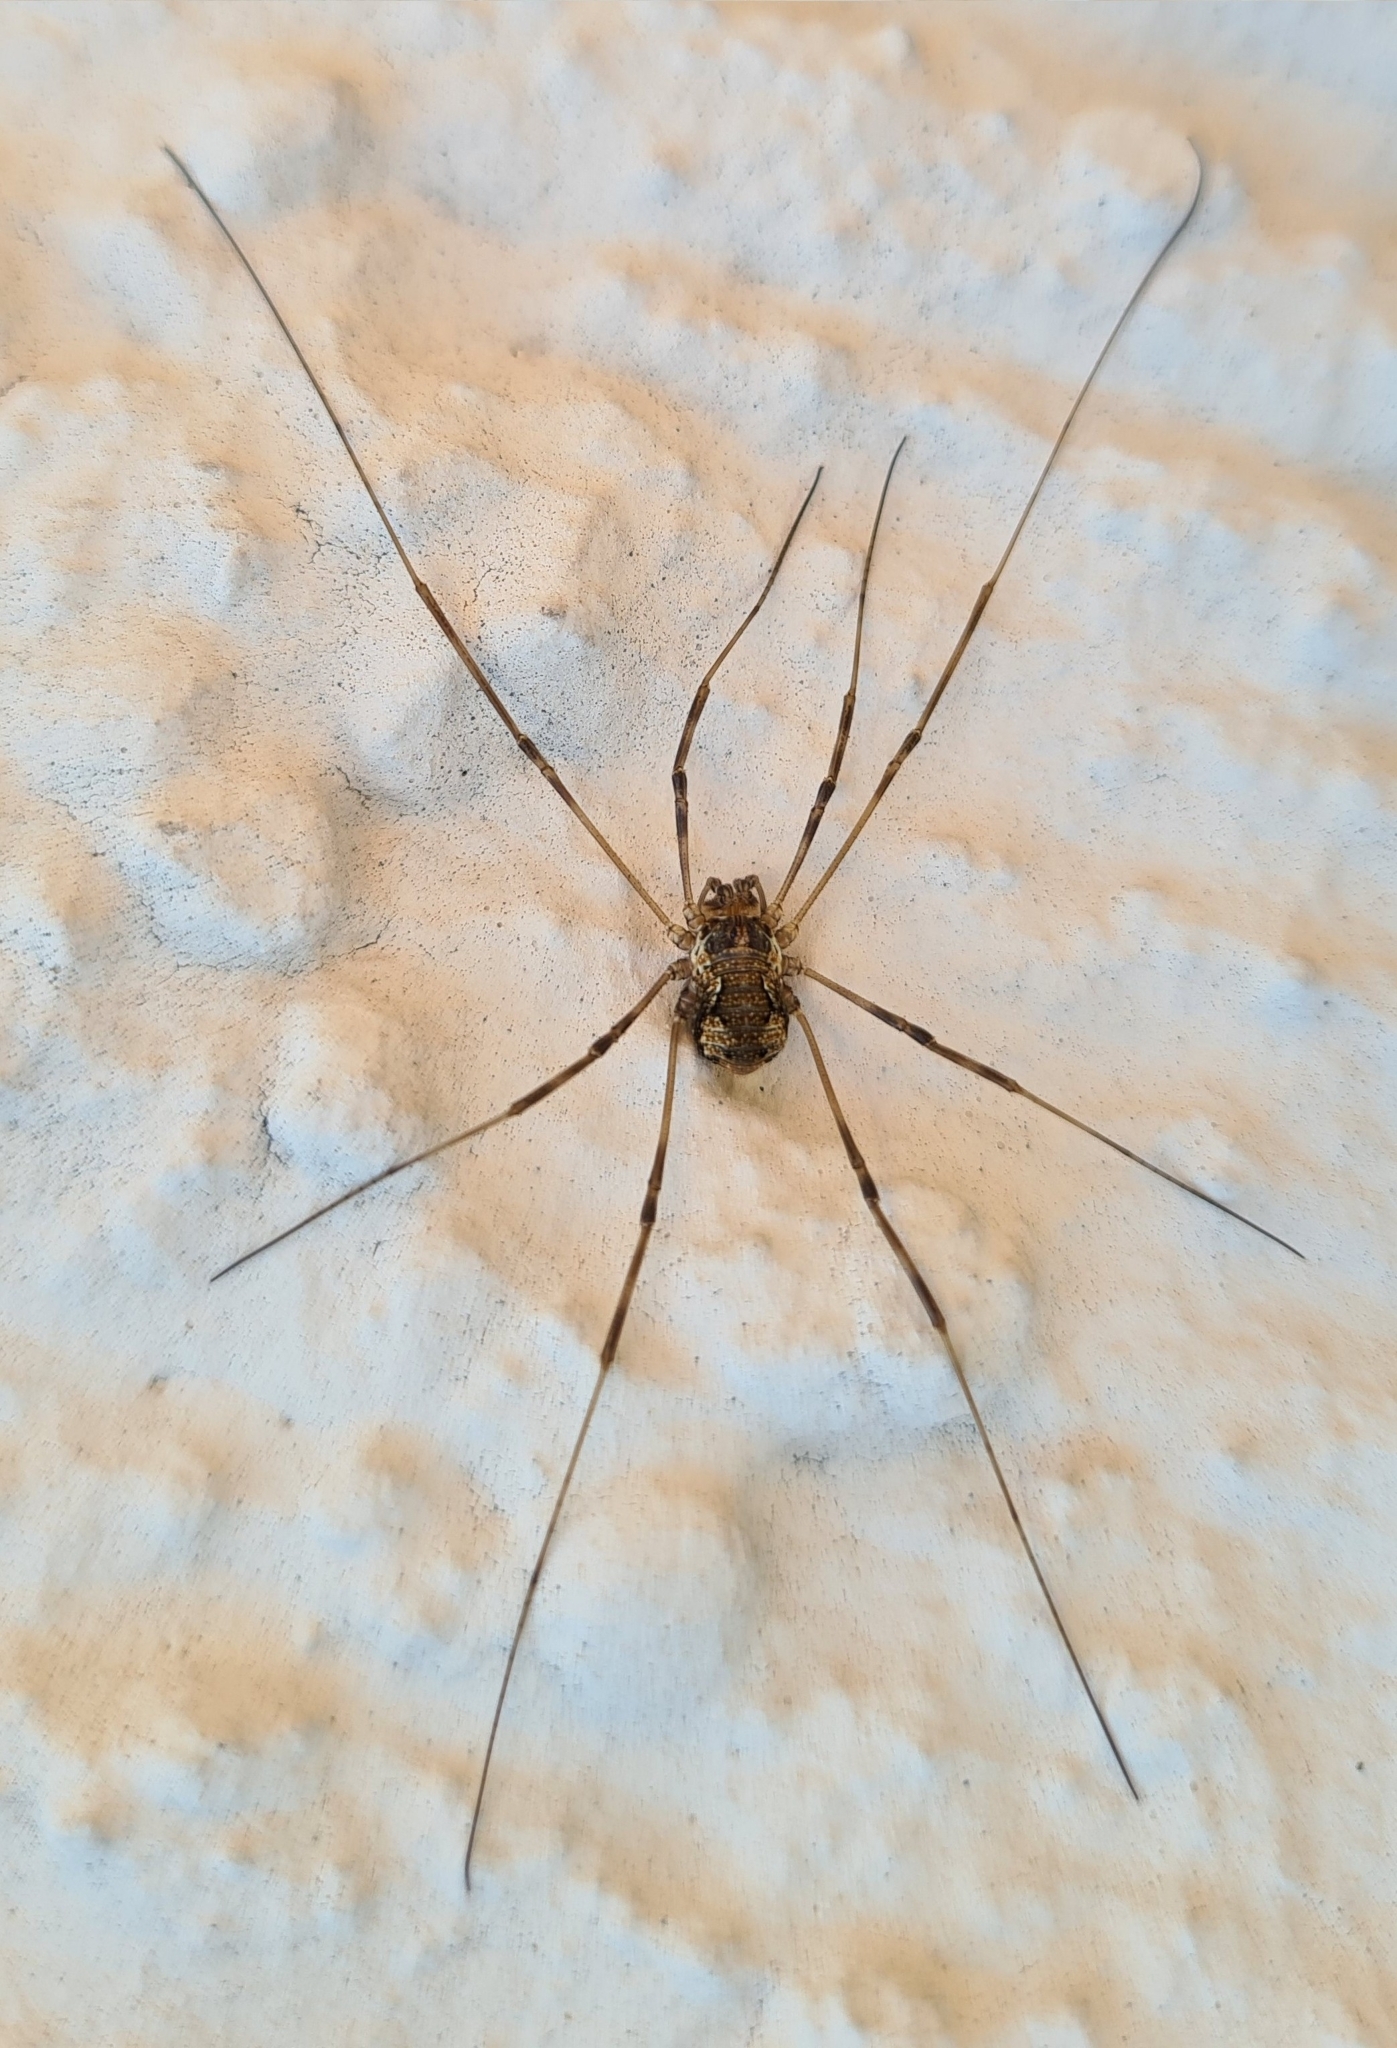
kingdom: Animalia
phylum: Arthropoda
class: Arachnida
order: Opiliones
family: Phalangiidae
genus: Dasylobus
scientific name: Dasylobus graniferus
